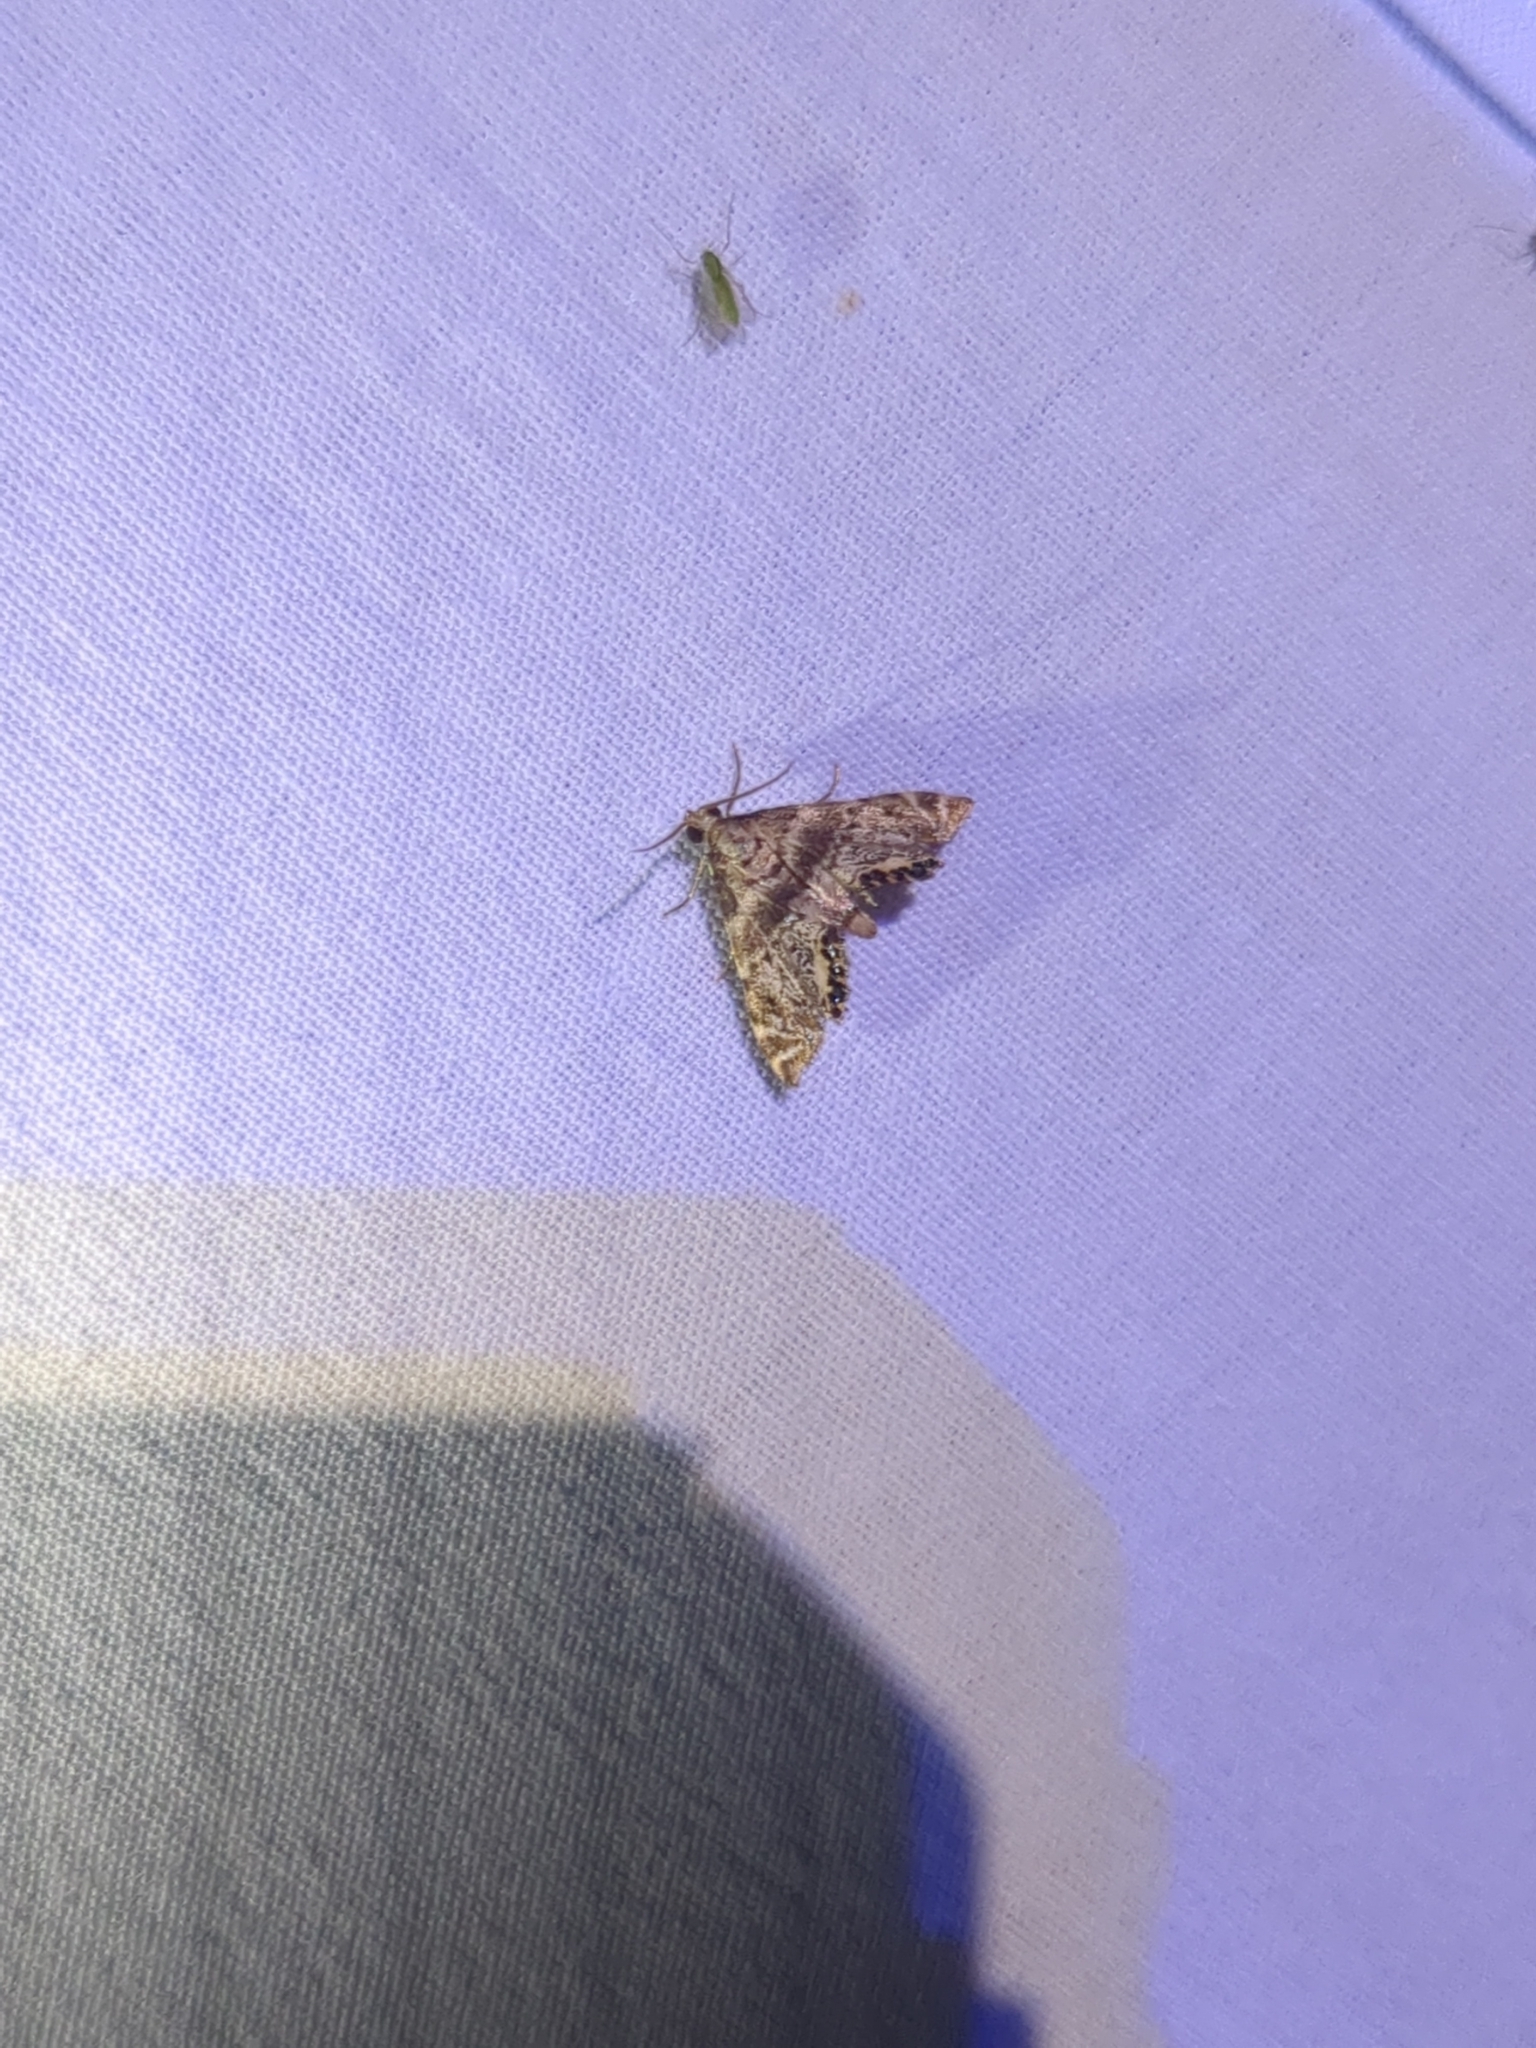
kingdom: Animalia
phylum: Arthropoda
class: Insecta
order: Lepidoptera
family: Crambidae
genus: Petrophila
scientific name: Petrophila fulicalis
